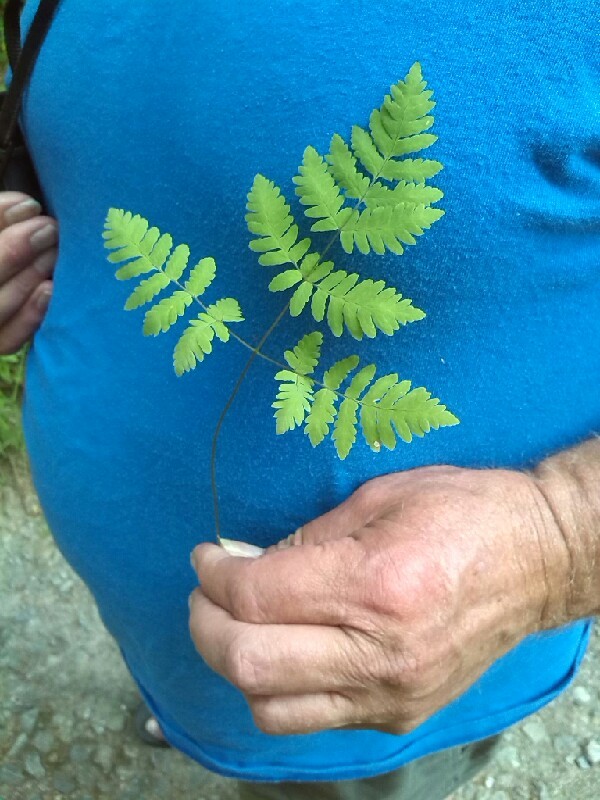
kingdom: Plantae
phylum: Tracheophyta
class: Polypodiopsida
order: Polypodiales
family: Cystopteridaceae
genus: Gymnocarpium
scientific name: Gymnocarpium dryopteris
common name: Oak fern
